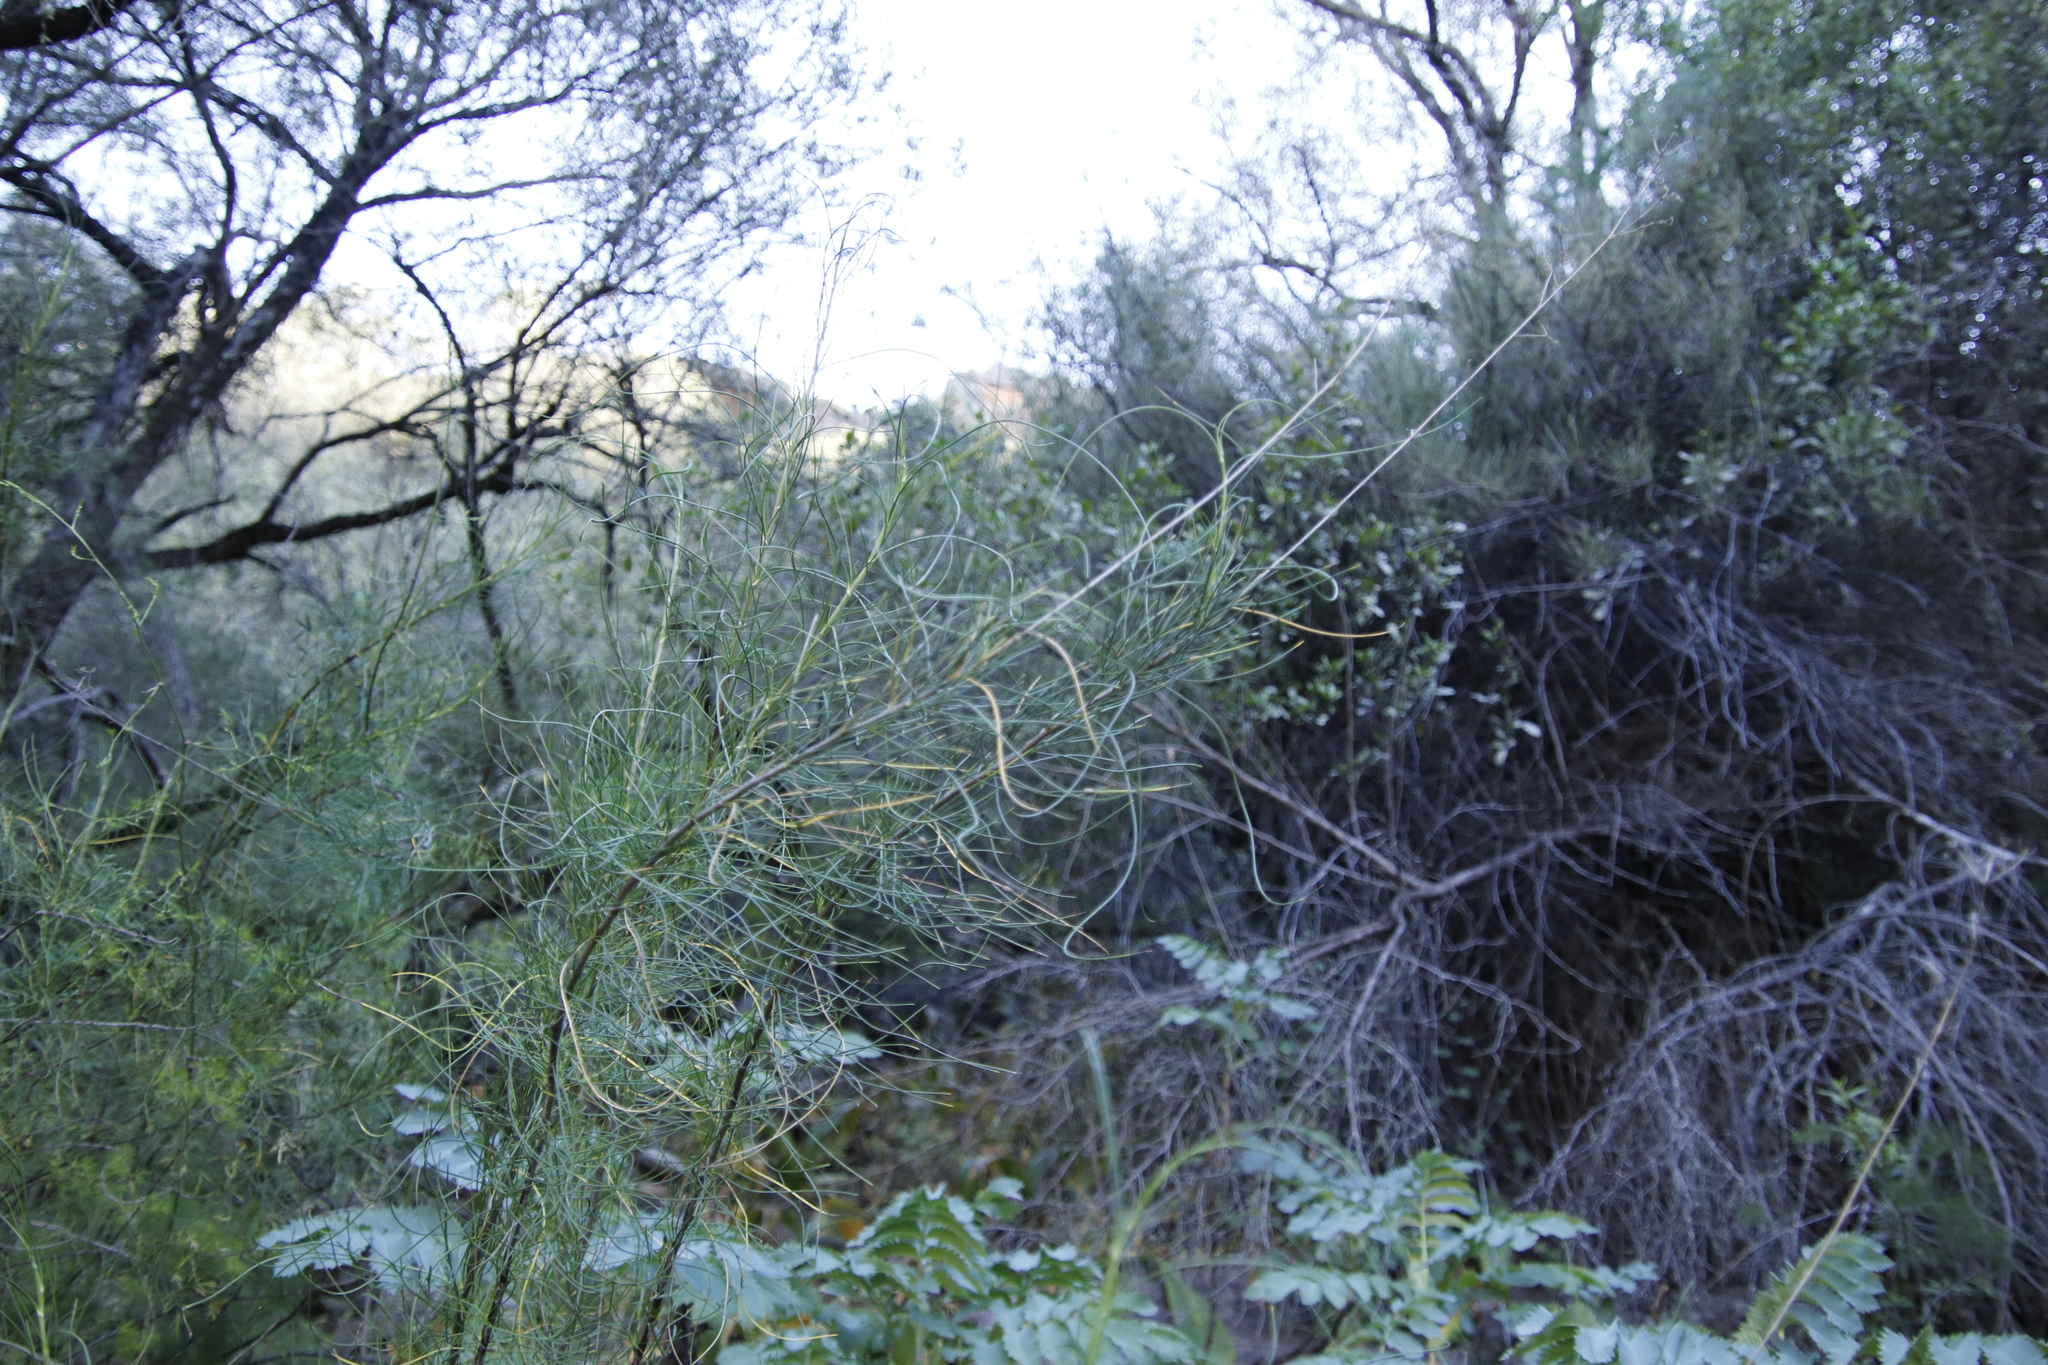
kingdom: Plantae
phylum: Tracheophyta
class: Magnoliopsida
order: Geraniales
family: Melianthaceae
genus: Melianthus
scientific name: Melianthus major
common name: Honey-flower
